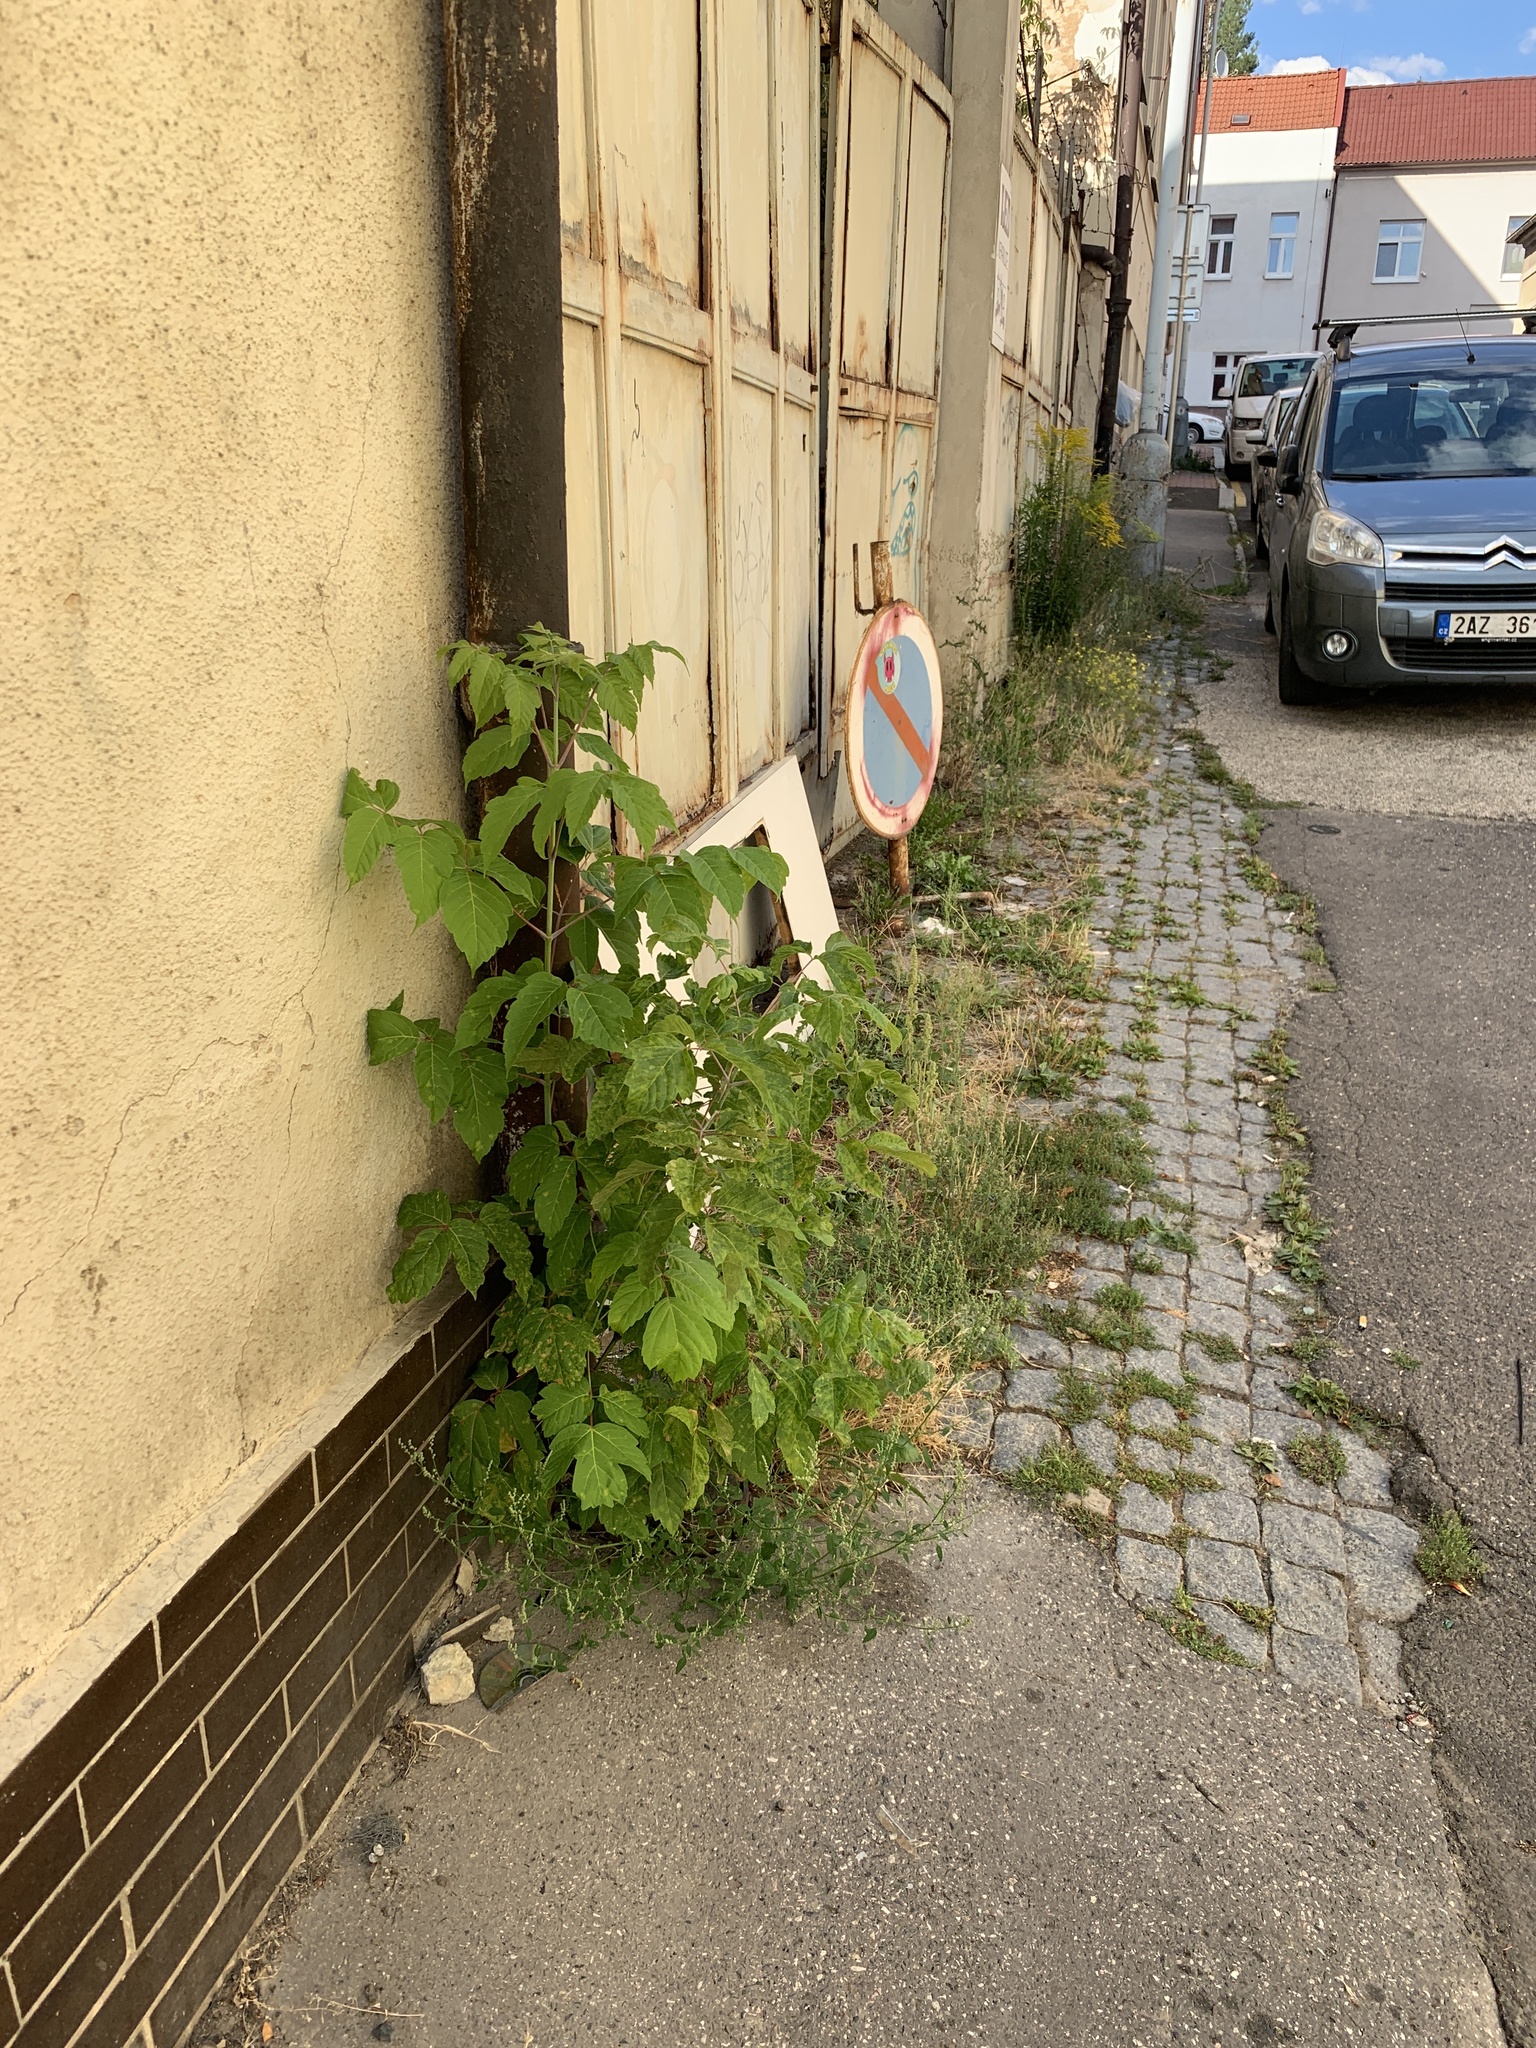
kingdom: Plantae
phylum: Tracheophyta
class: Magnoliopsida
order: Sapindales
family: Sapindaceae
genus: Acer
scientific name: Acer negundo
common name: Ashleaf maple
